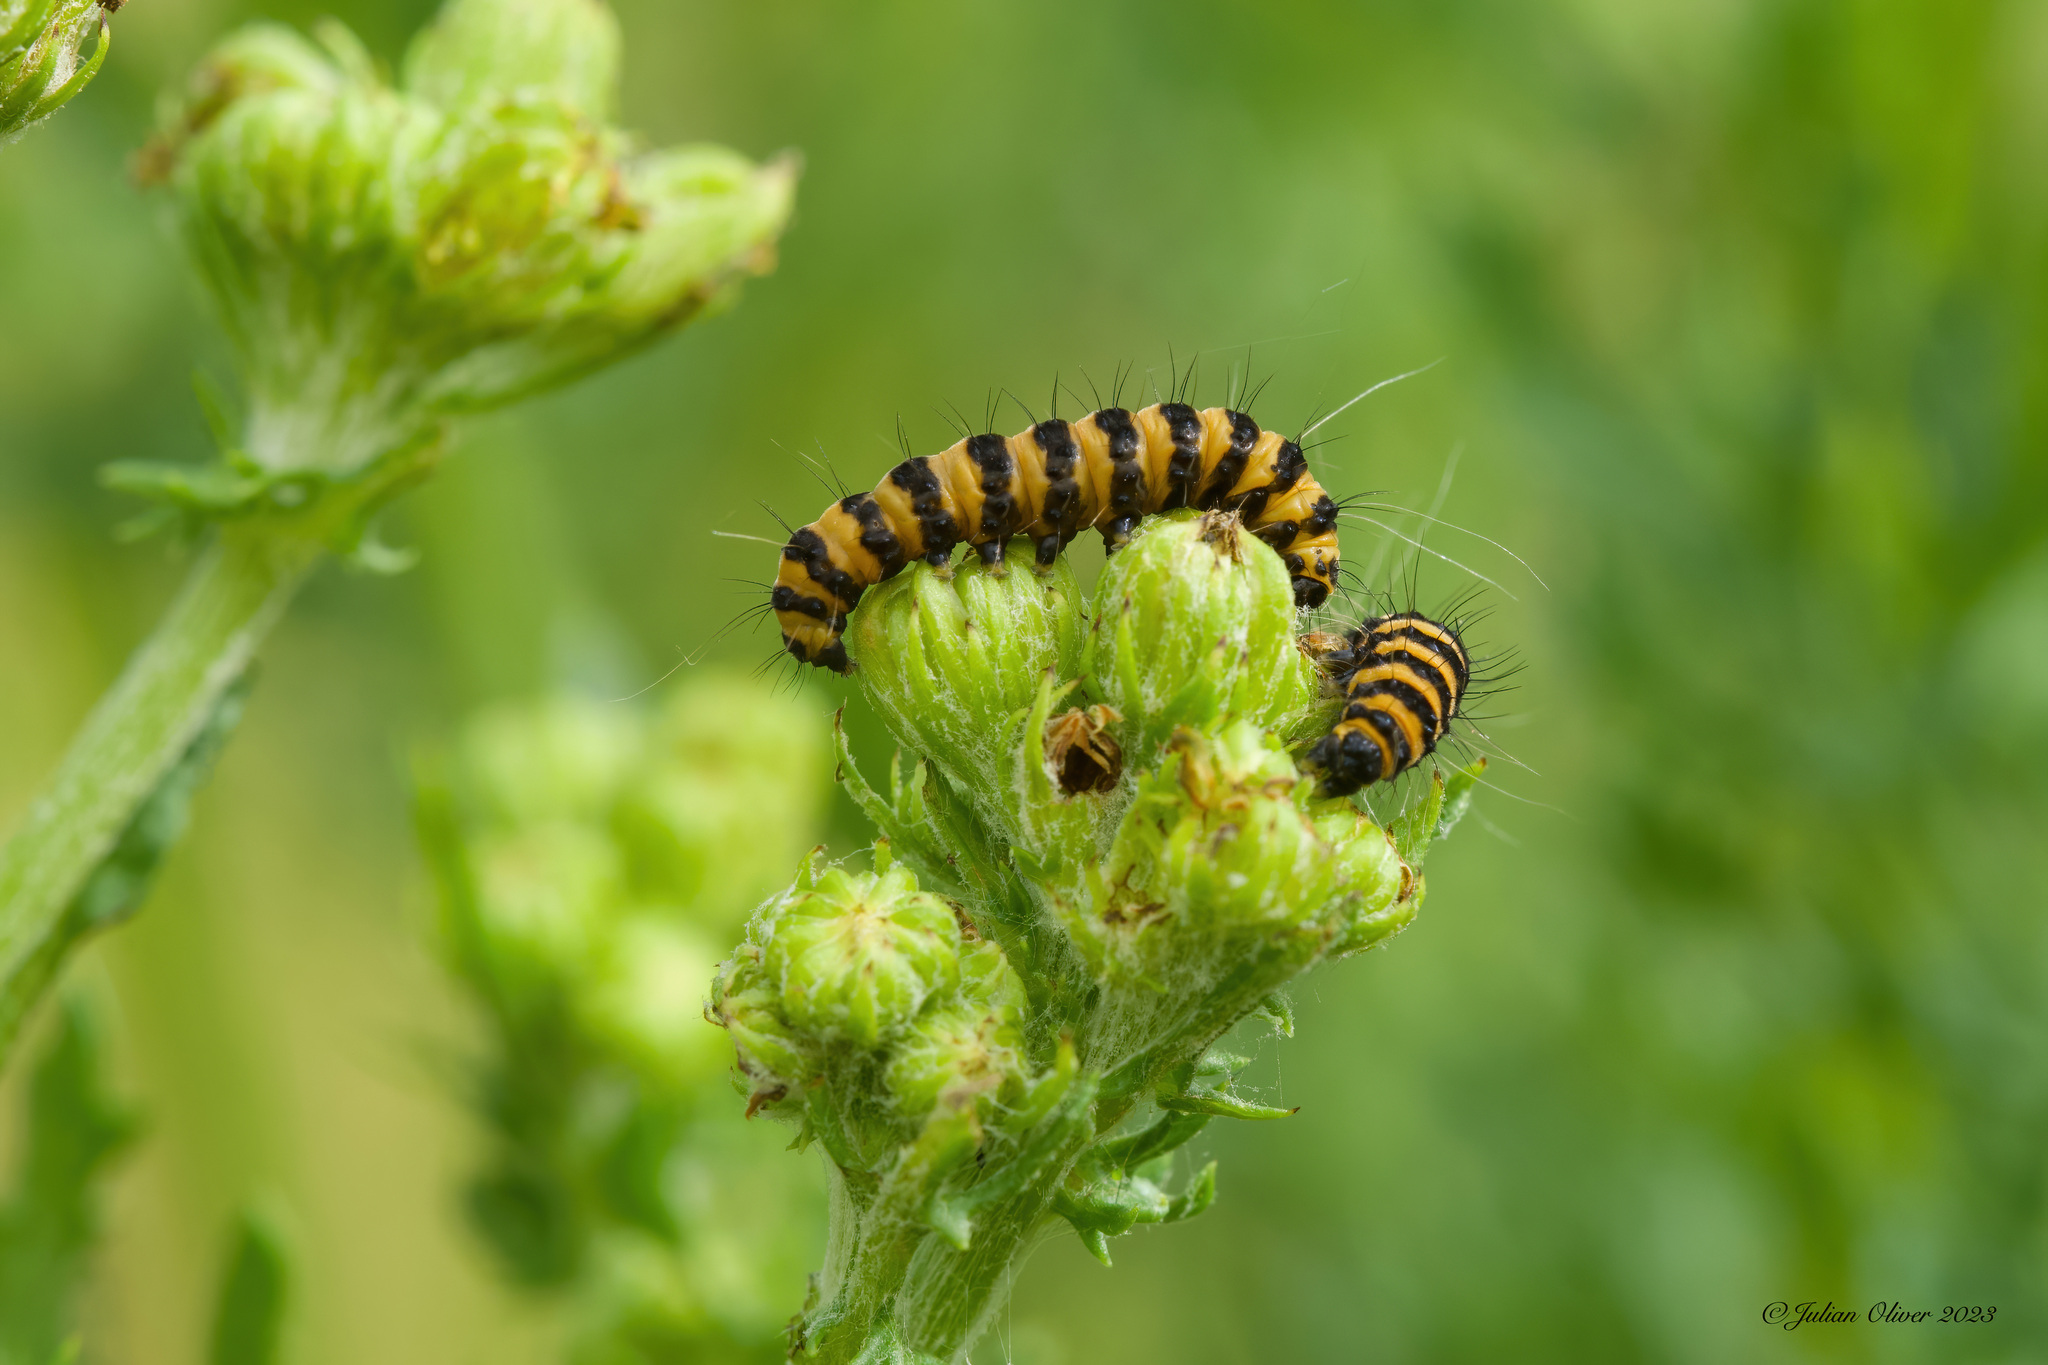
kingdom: Animalia
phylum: Arthropoda
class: Insecta
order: Lepidoptera
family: Erebidae
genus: Tyria
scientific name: Tyria jacobaeae
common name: Cinnabar
